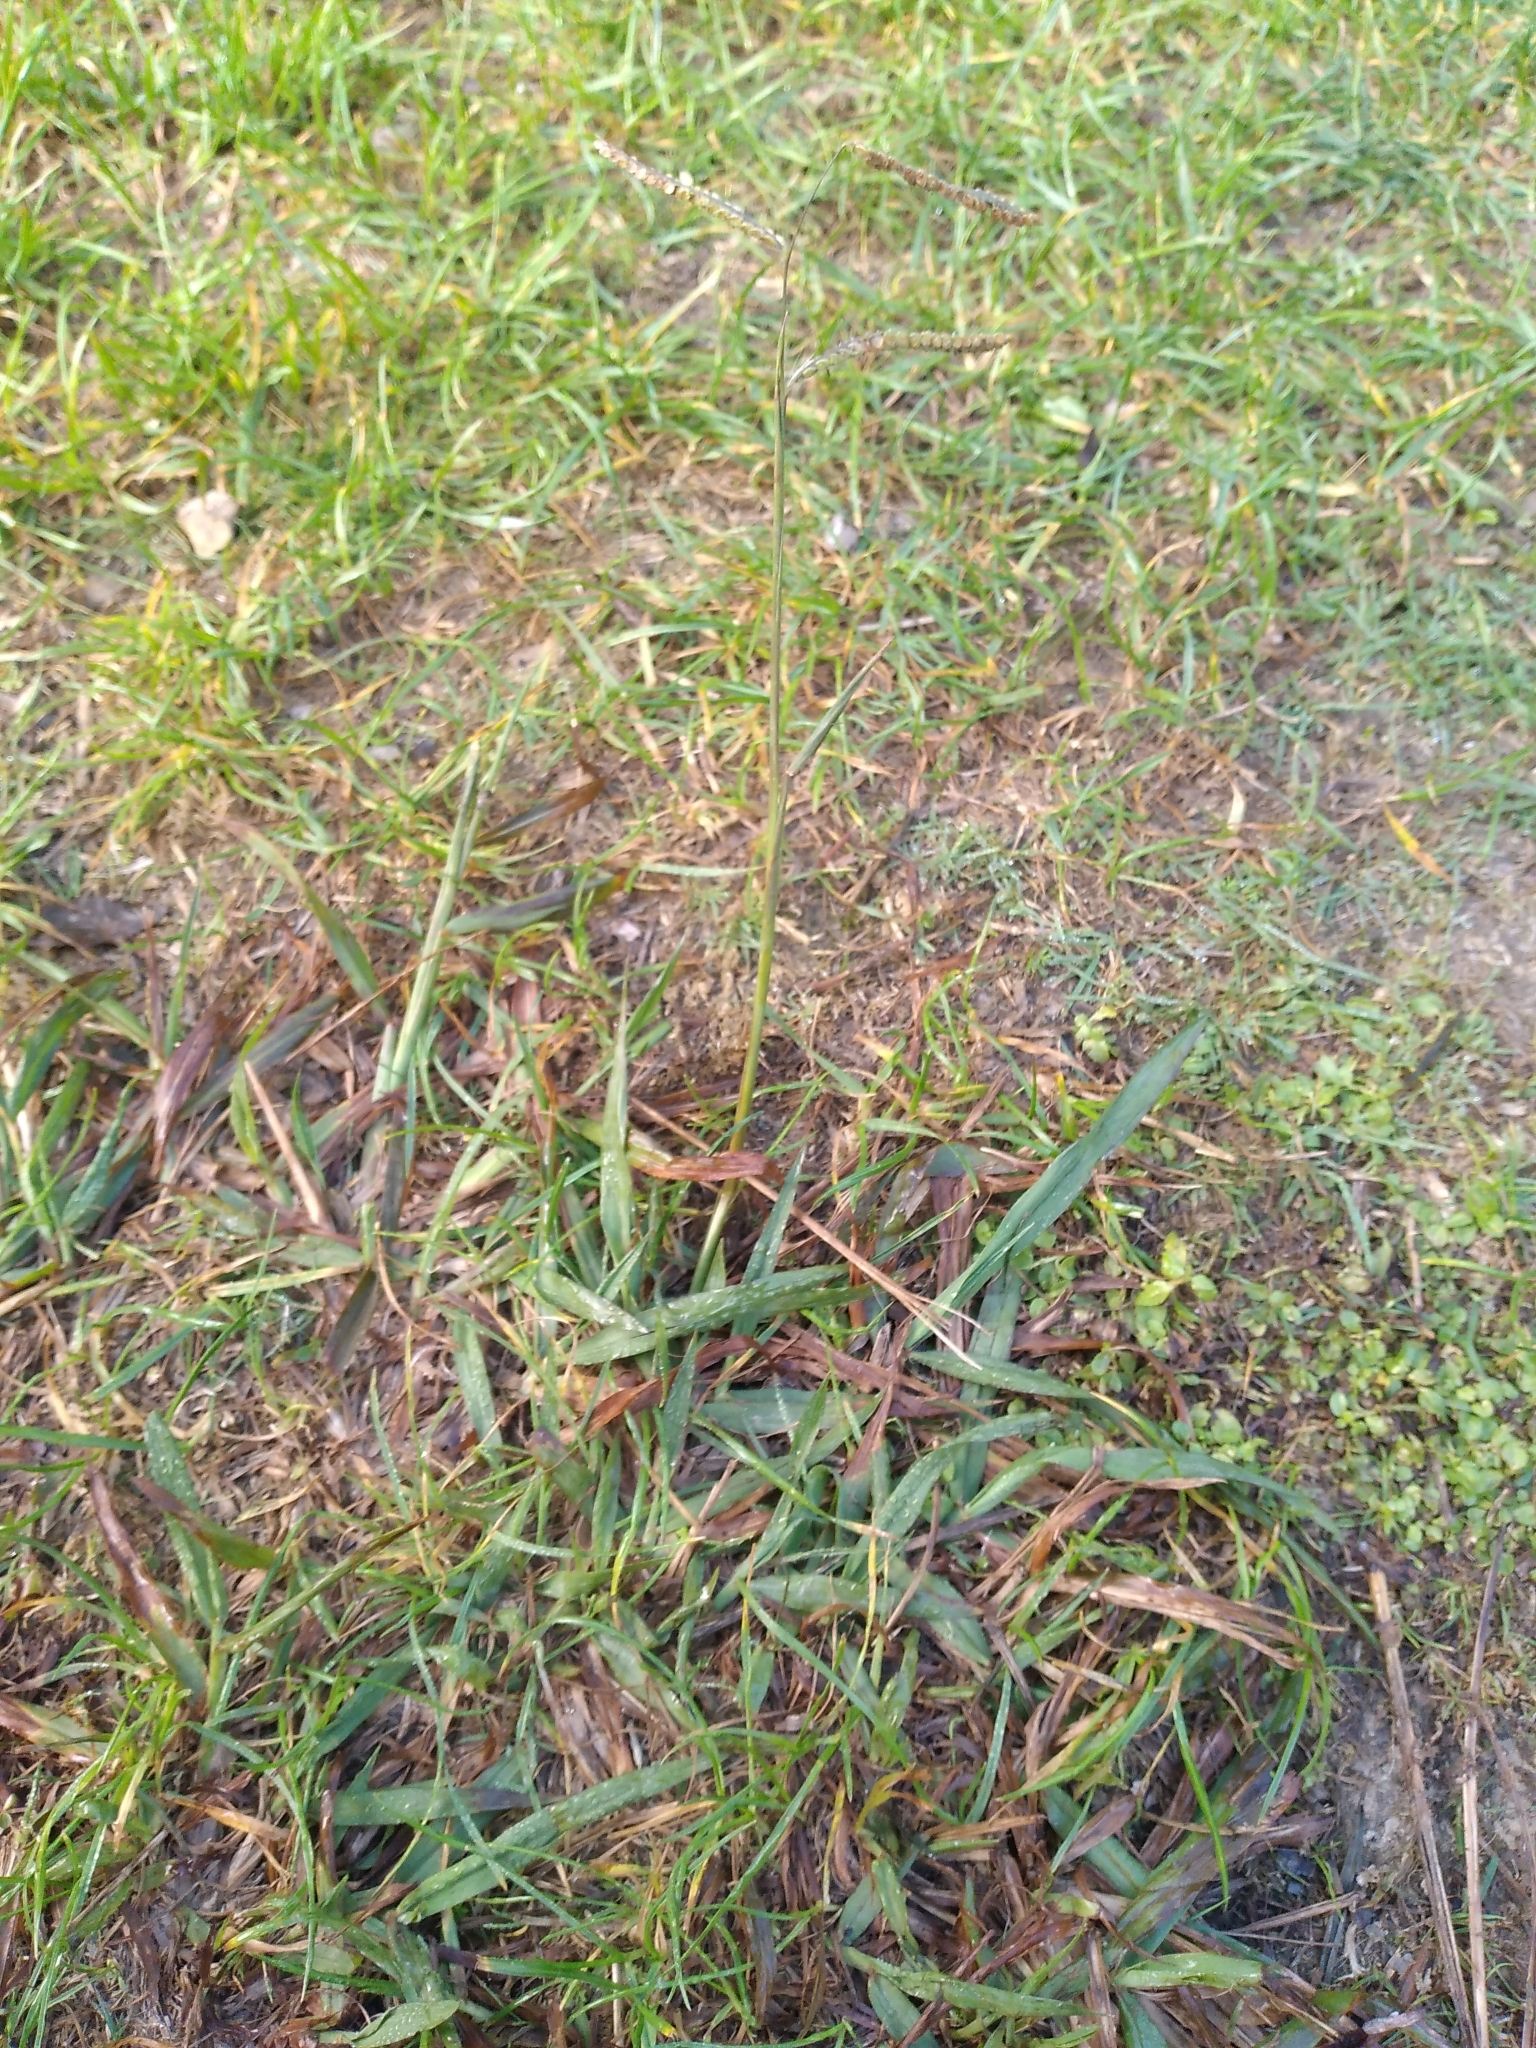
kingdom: Plantae
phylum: Tracheophyta
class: Liliopsida
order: Poales
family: Poaceae
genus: Paspalum
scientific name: Paspalum dilatatum
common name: Dallisgrass
